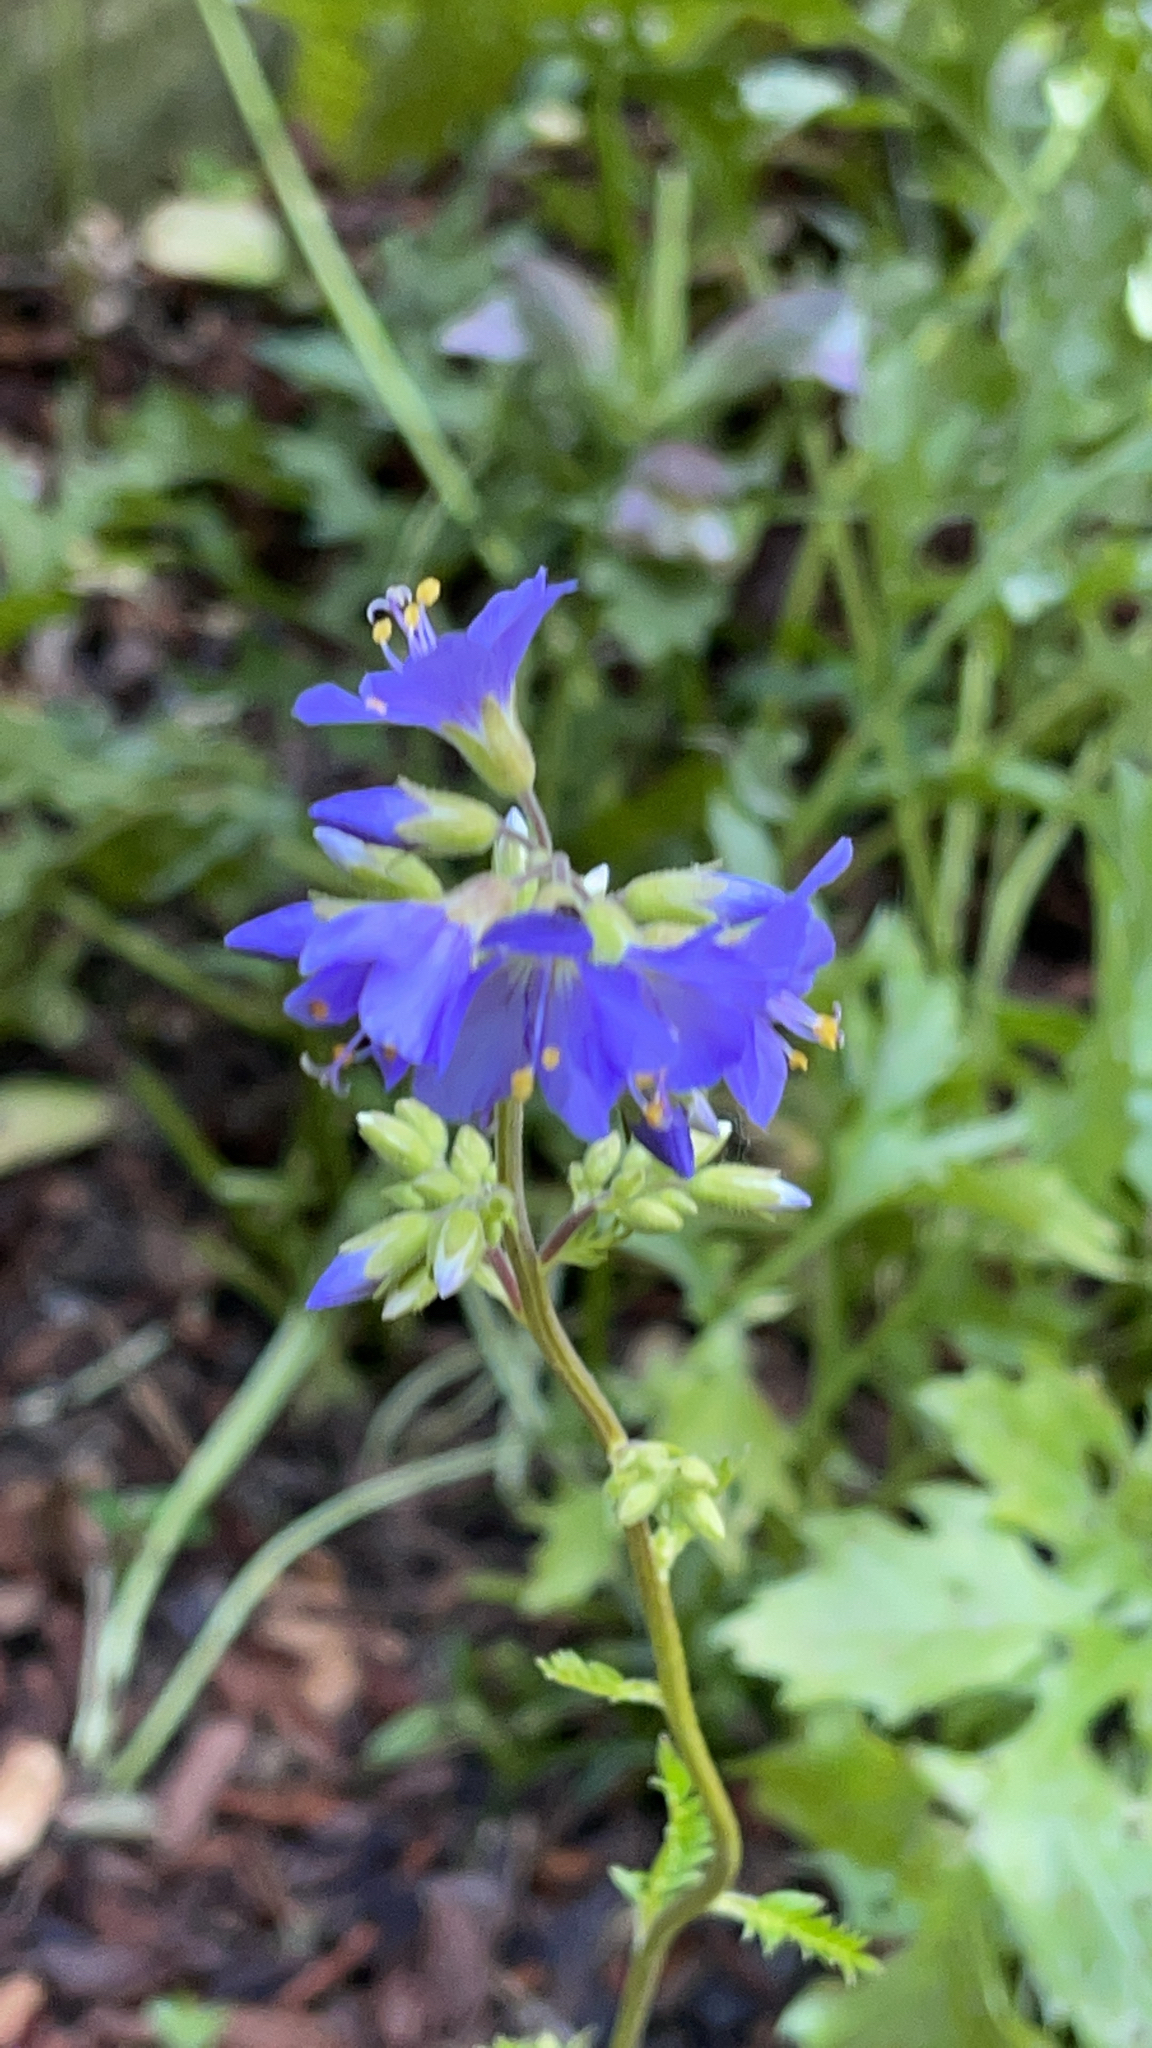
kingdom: Plantae
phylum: Tracheophyta
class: Magnoliopsida
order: Ericales
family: Polemoniaceae
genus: Polemonium
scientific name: Polemonium caeruleum
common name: Jacob's-ladder
